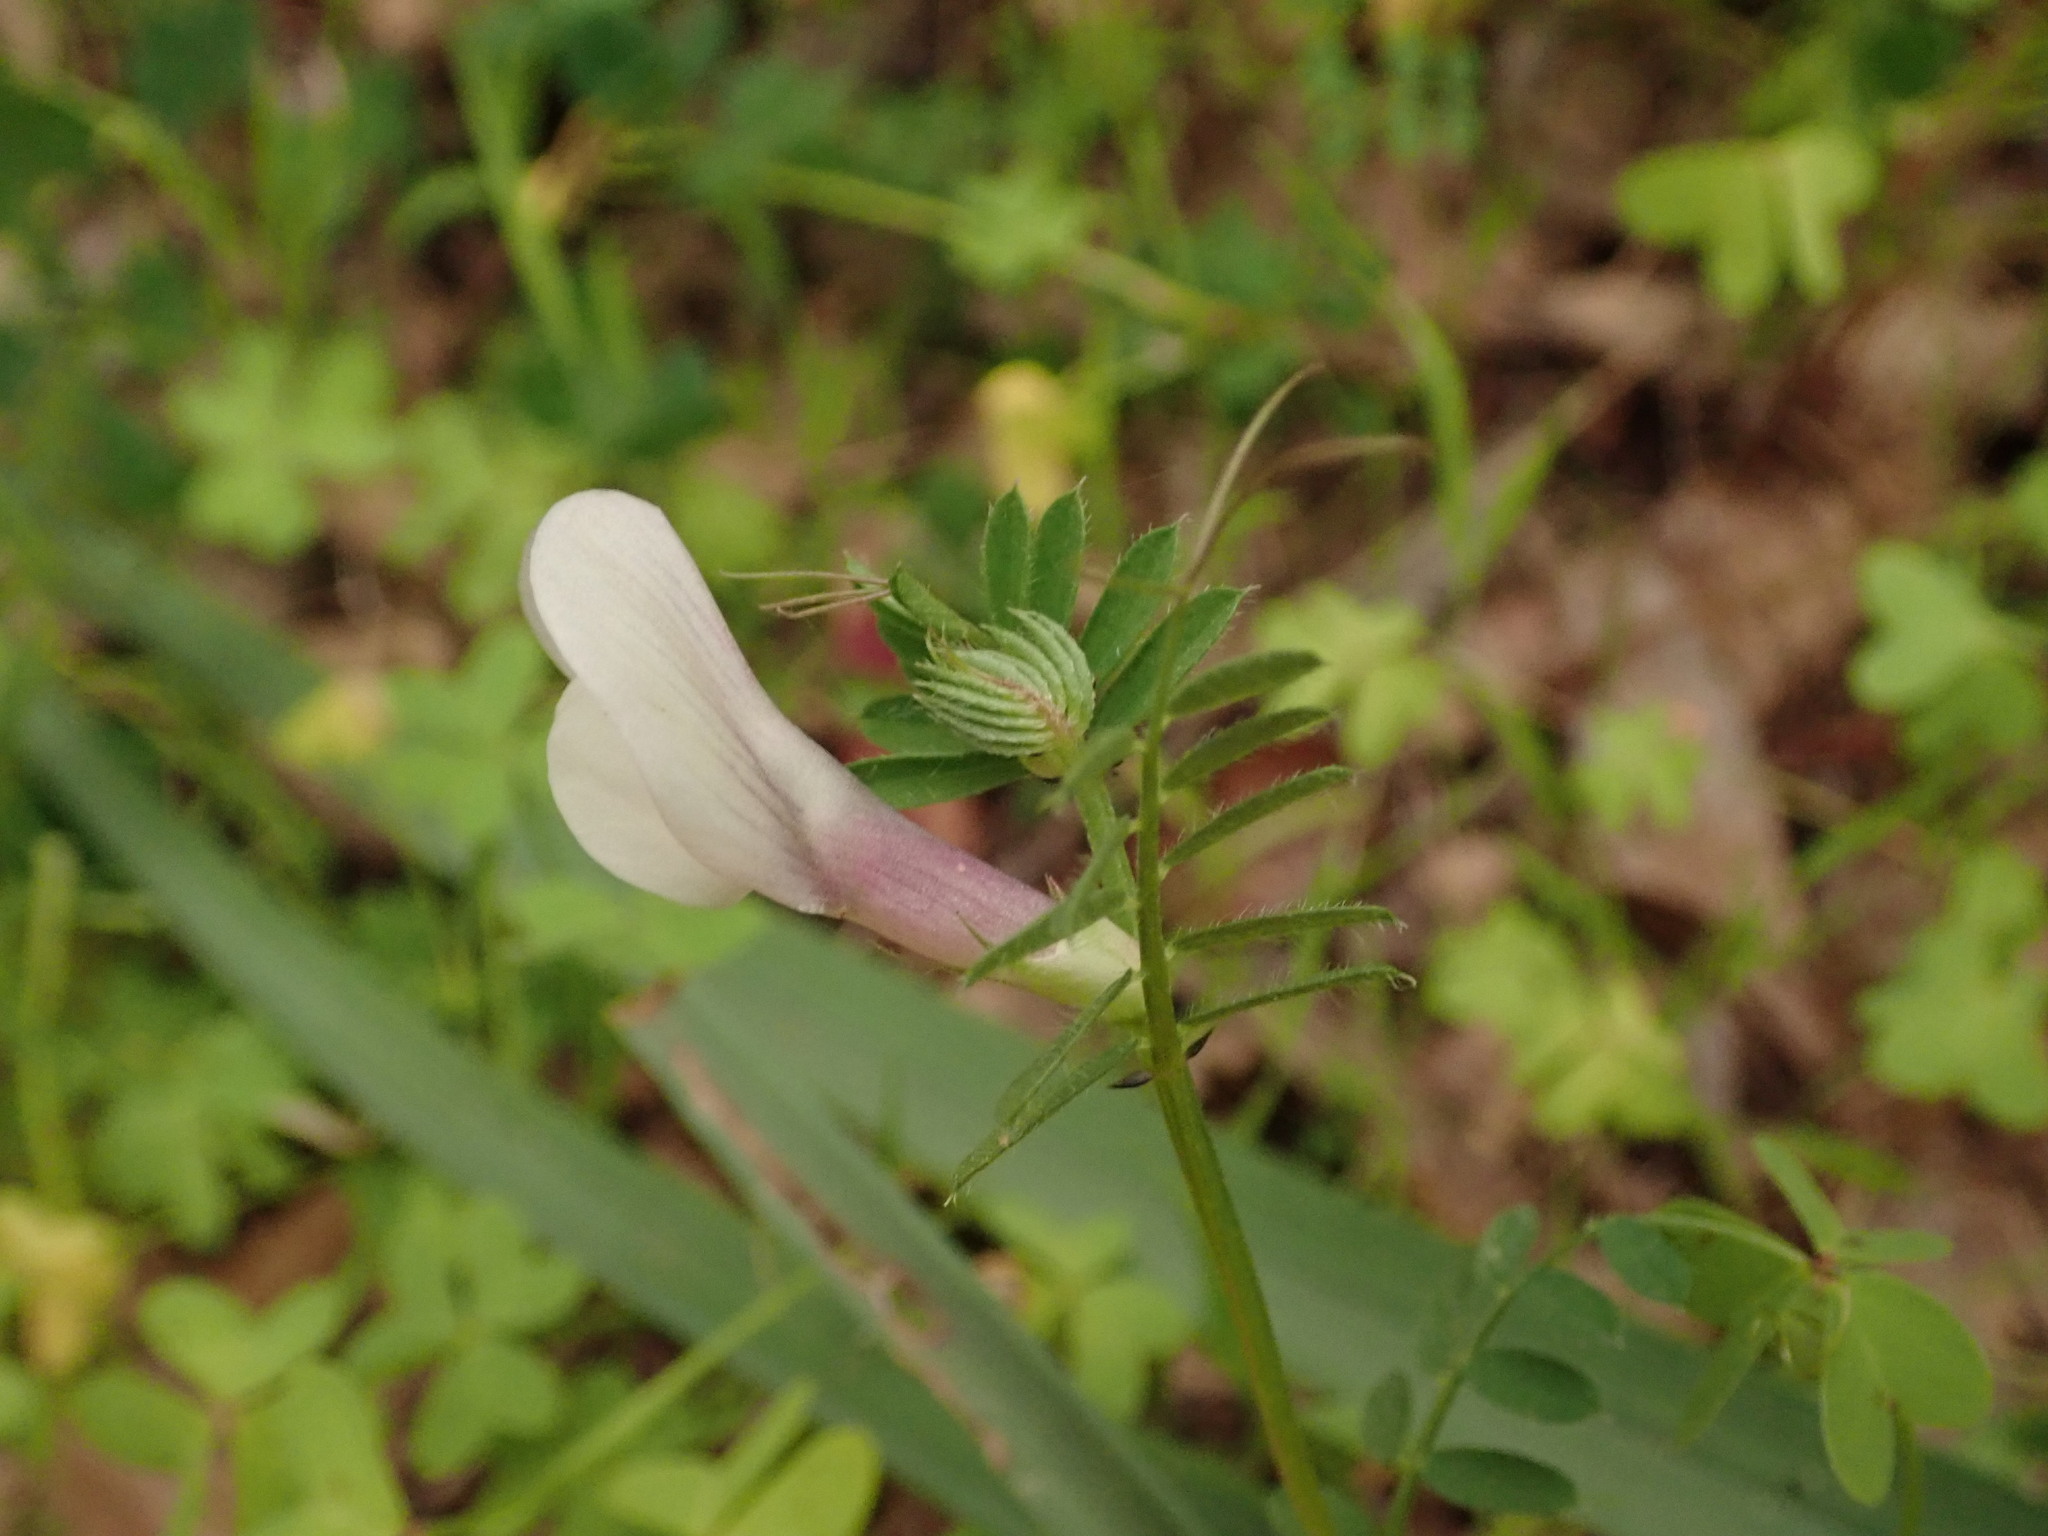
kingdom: Plantae
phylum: Tracheophyta
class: Magnoliopsida
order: Fabales
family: Fabaceae
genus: Vicia
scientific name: Vicia lutea
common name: Smooth yellow vetch
